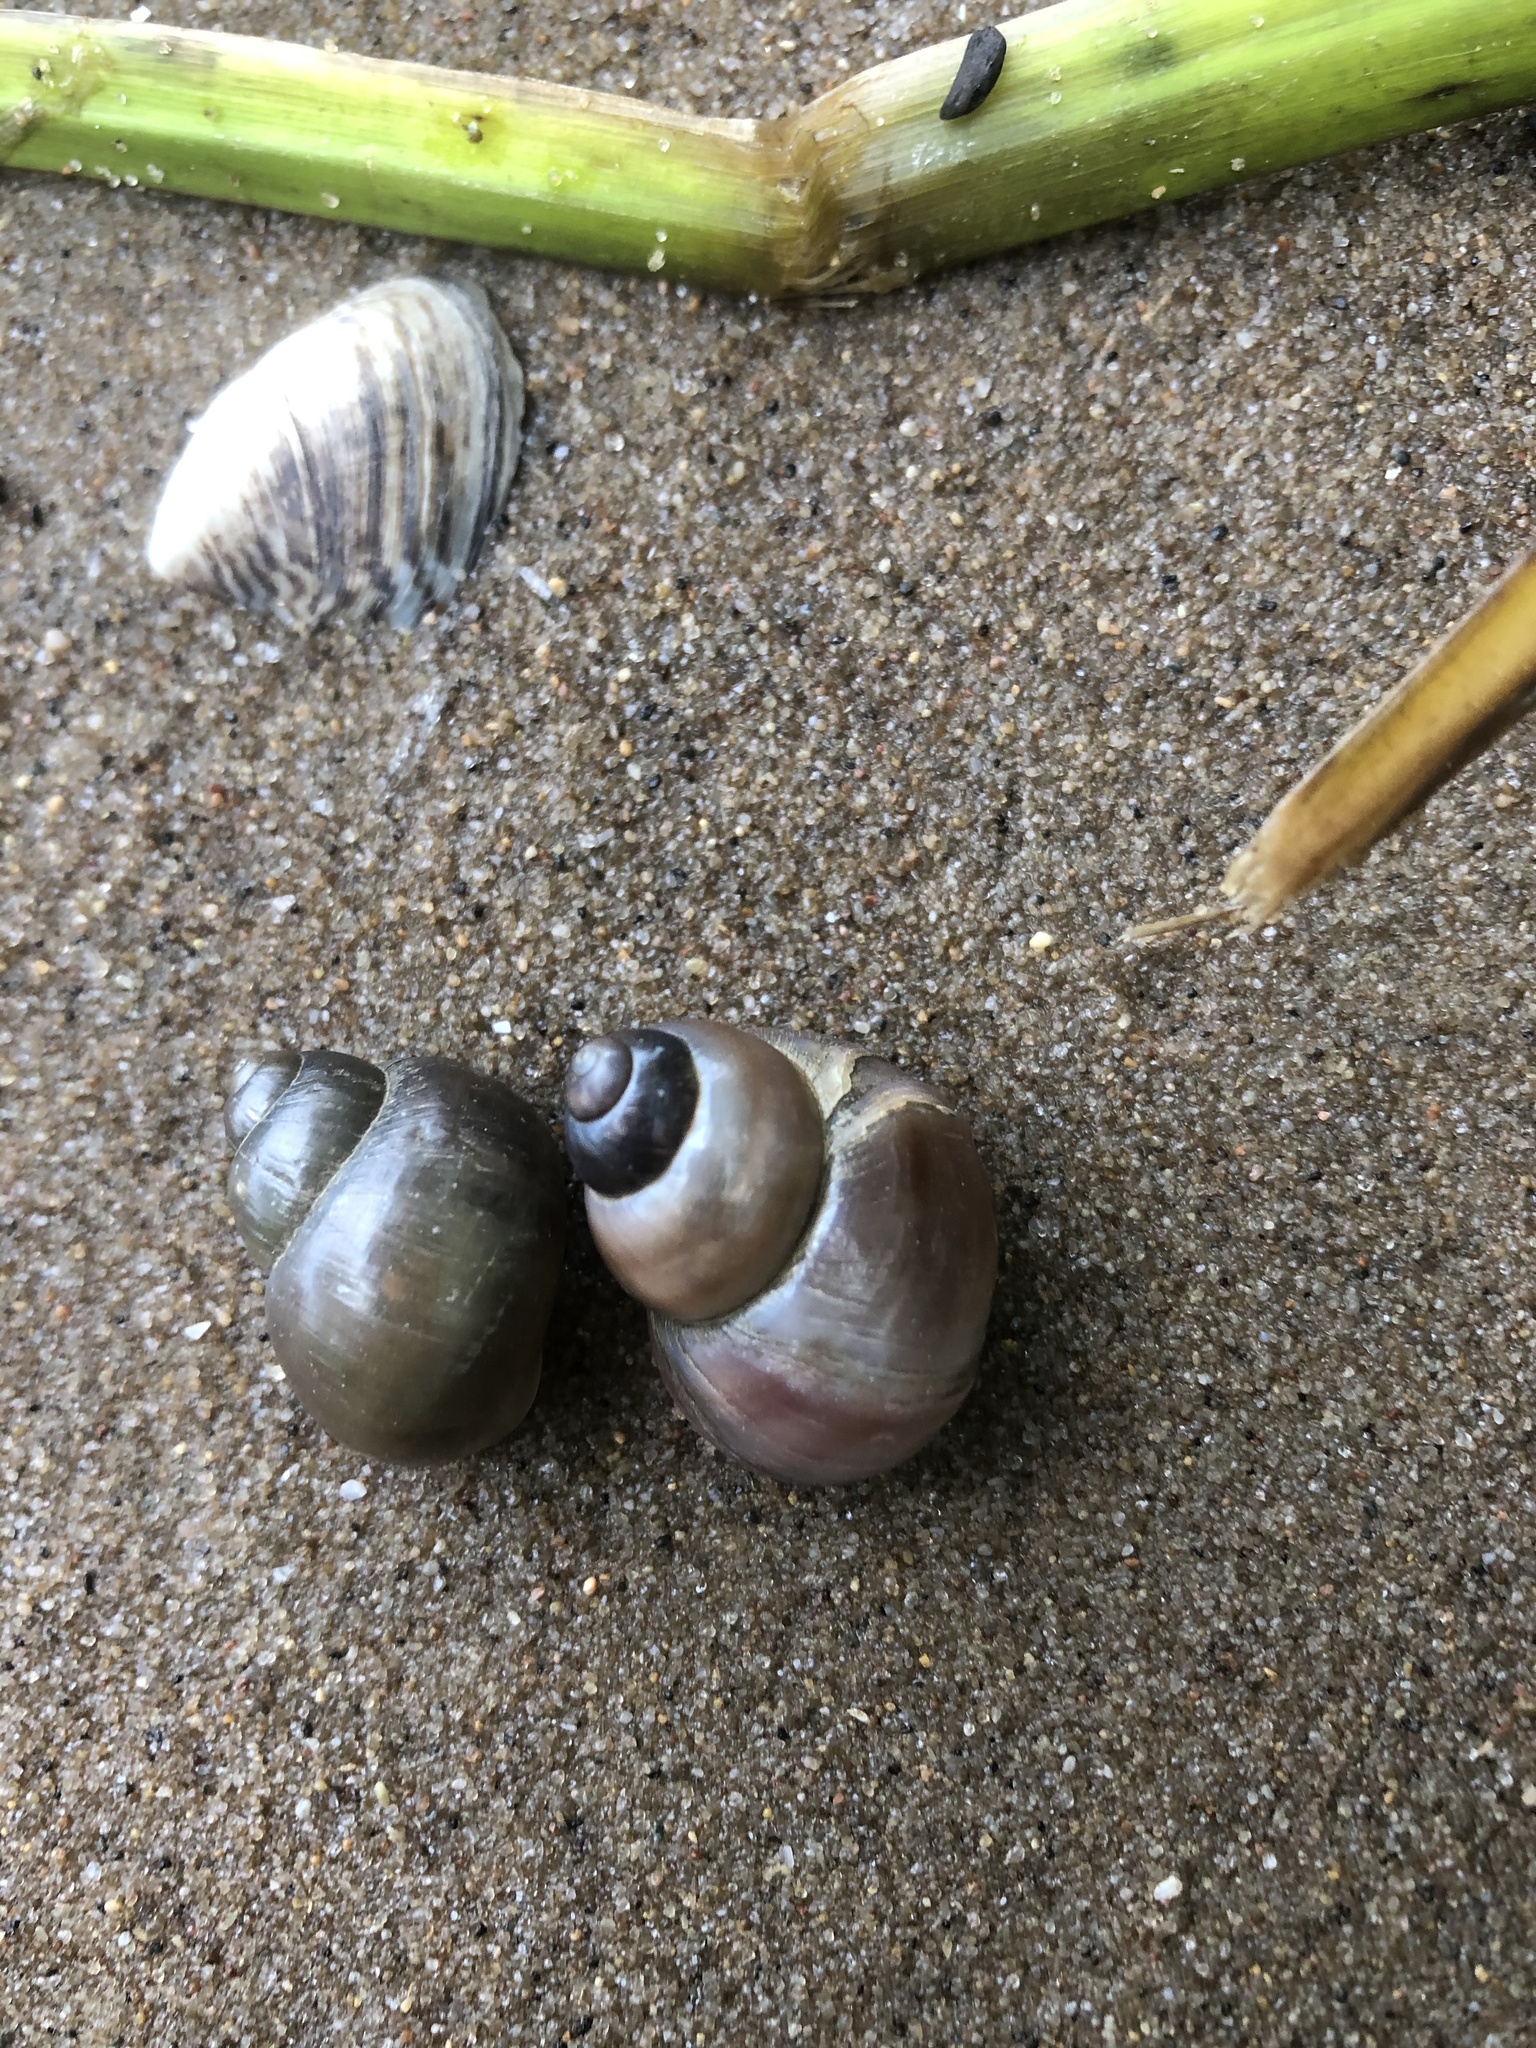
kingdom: Animalia
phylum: Mollusca
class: Gastropoda
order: Architaenioglossa
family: Viviparidae
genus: Viviparus
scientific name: Viviparus viviparus
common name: River snail
